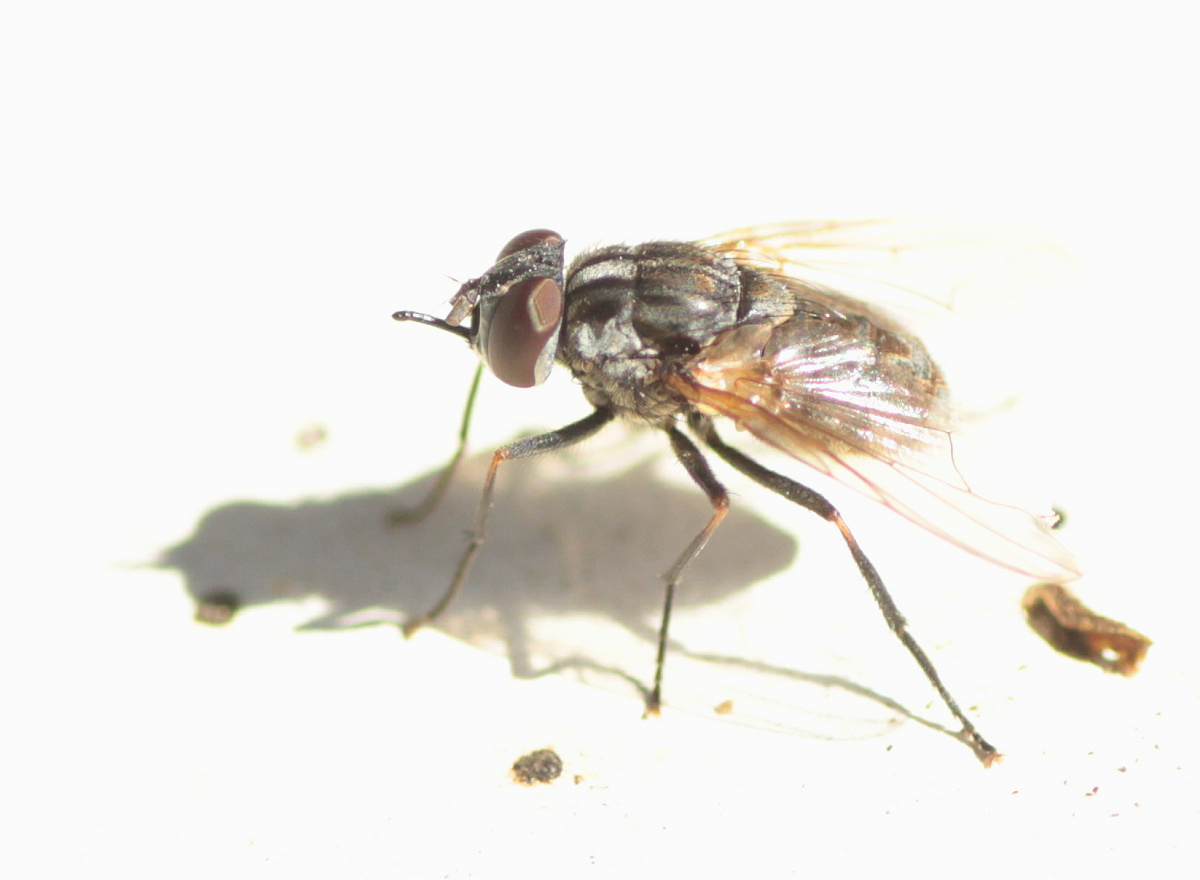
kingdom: Animalia
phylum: Arthropoda
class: Insecta
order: Diptera
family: Muscidae
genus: Stomoxys
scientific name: Stomoxys calcitrans
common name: Stable fly
